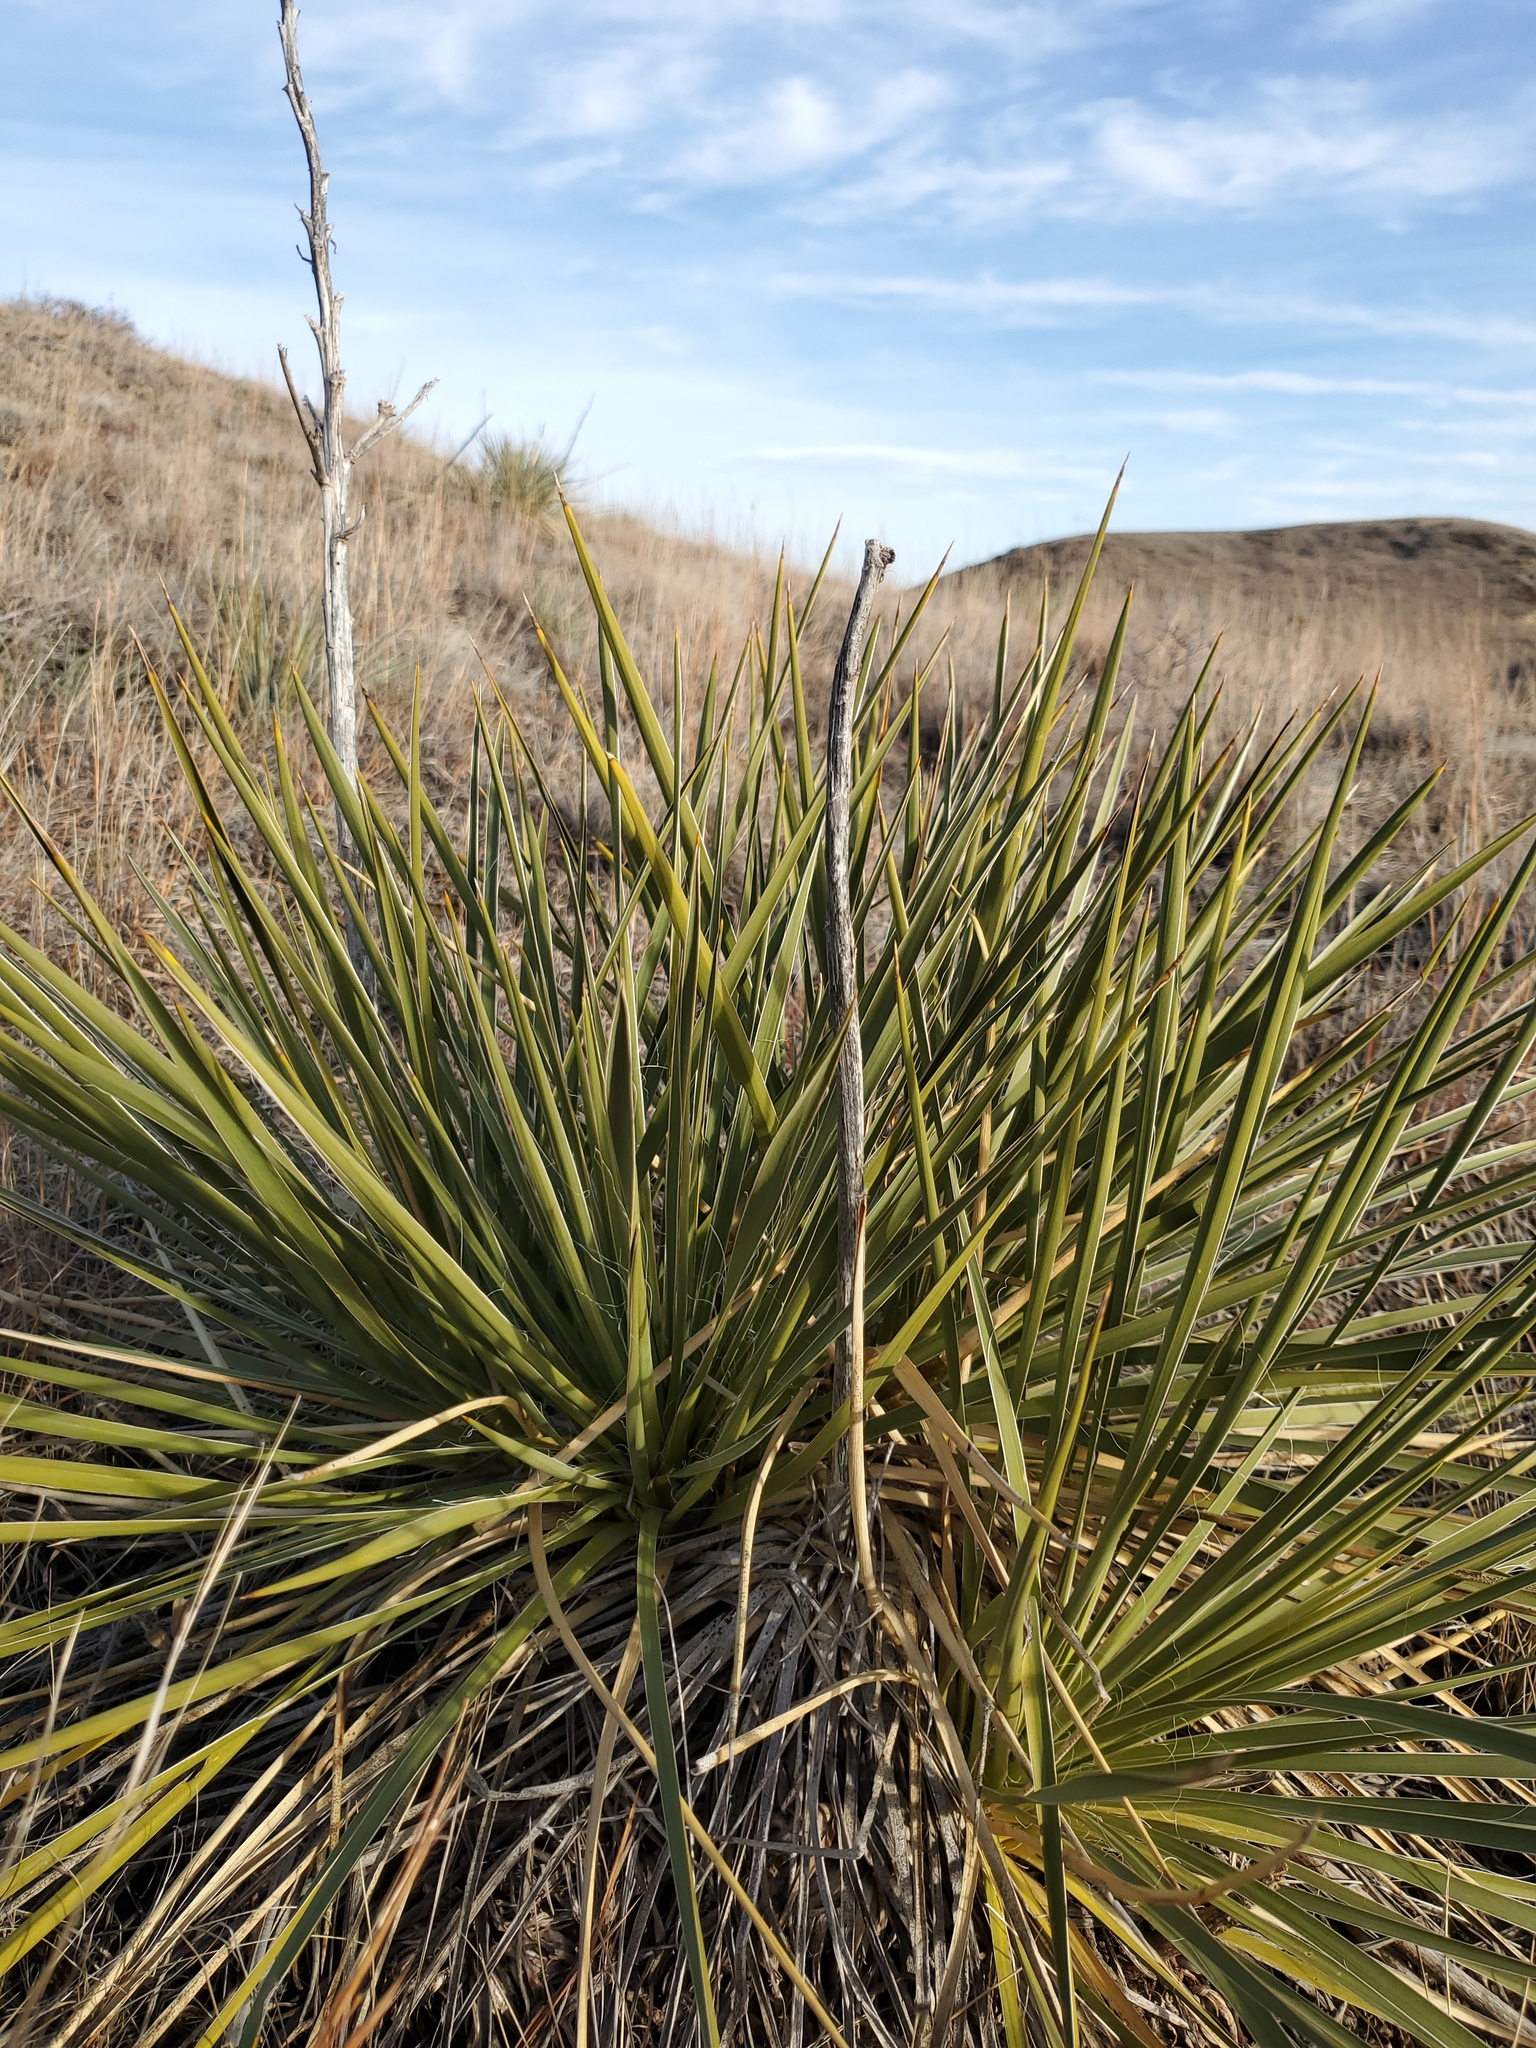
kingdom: Plantae
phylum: Tracheophyta
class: Liliopsida
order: Asparagales
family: Asparagaceae
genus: Yucca
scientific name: Yucca glauca
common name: Great plains yucca
